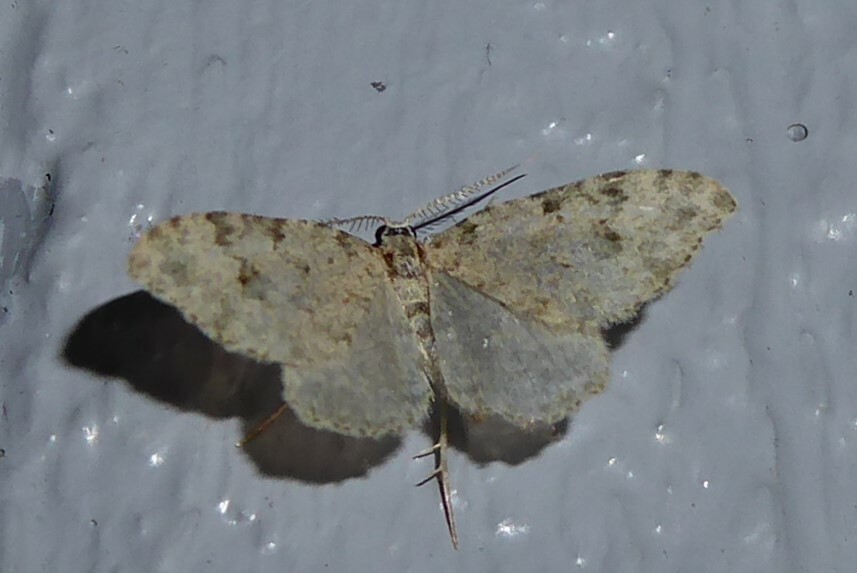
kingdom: Animalia
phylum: Arthropoda
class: Insecta
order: Lepidoptera
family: Geometridae
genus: Helastia
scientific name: Helastia cinerearia
